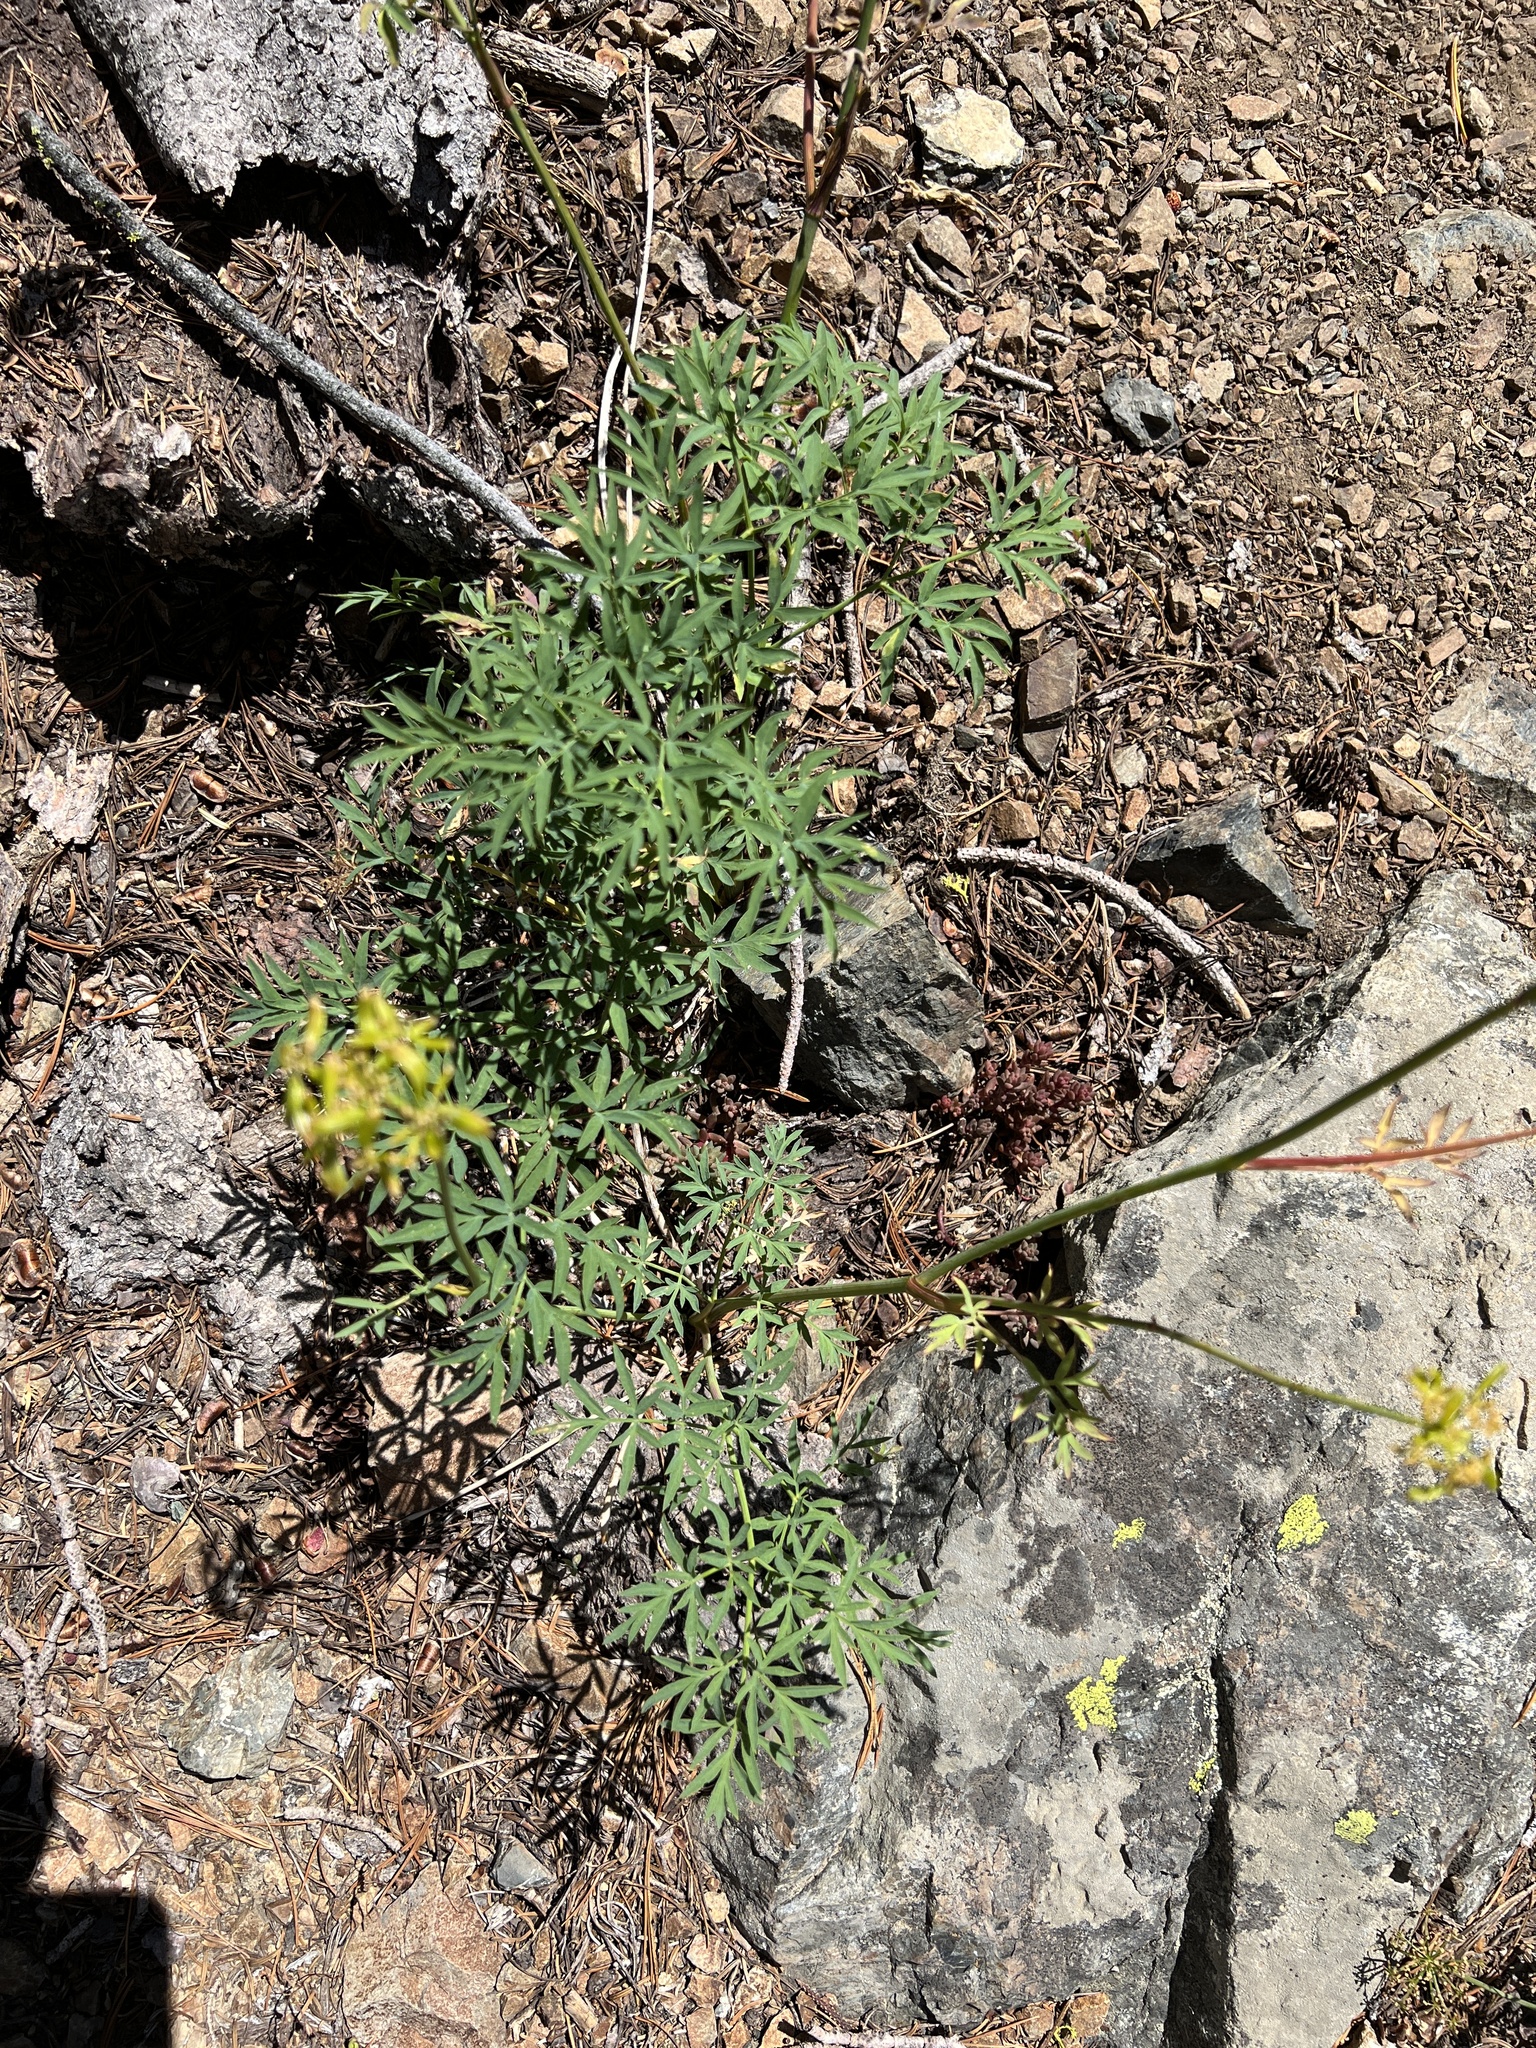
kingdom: Plantae
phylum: Tracheophyta
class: Magnoliopsida
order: Apiales
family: Apiaceae
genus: Lomatium
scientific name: Lomatium brandegeei
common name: Brandegee's desert-parsley
